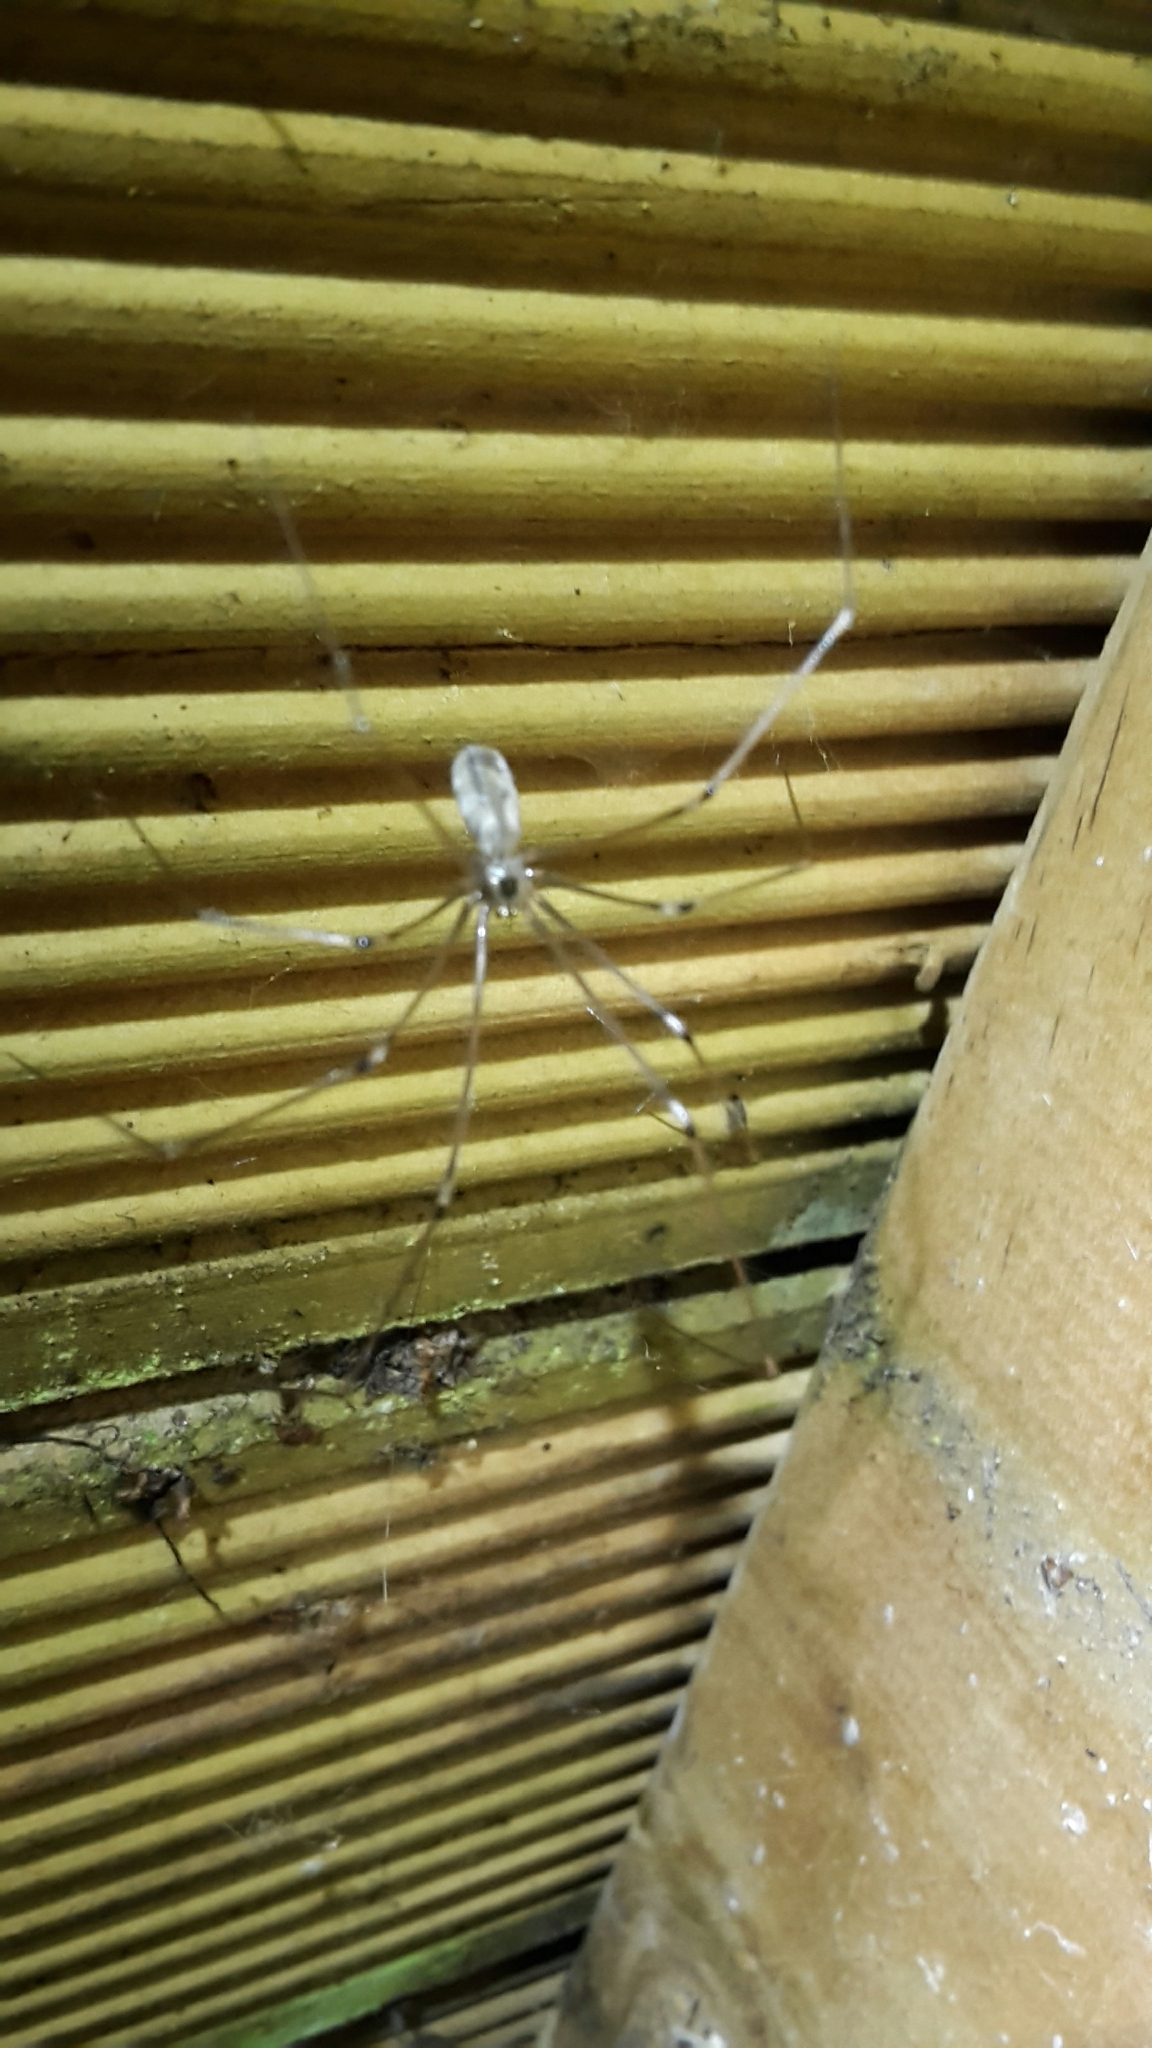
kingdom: Animalia
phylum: Arthropoda
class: Arachnida
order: Araneae
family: Pholcidae
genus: Pholcus
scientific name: Pholcus phalangioides
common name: Longbodied cellar spider
